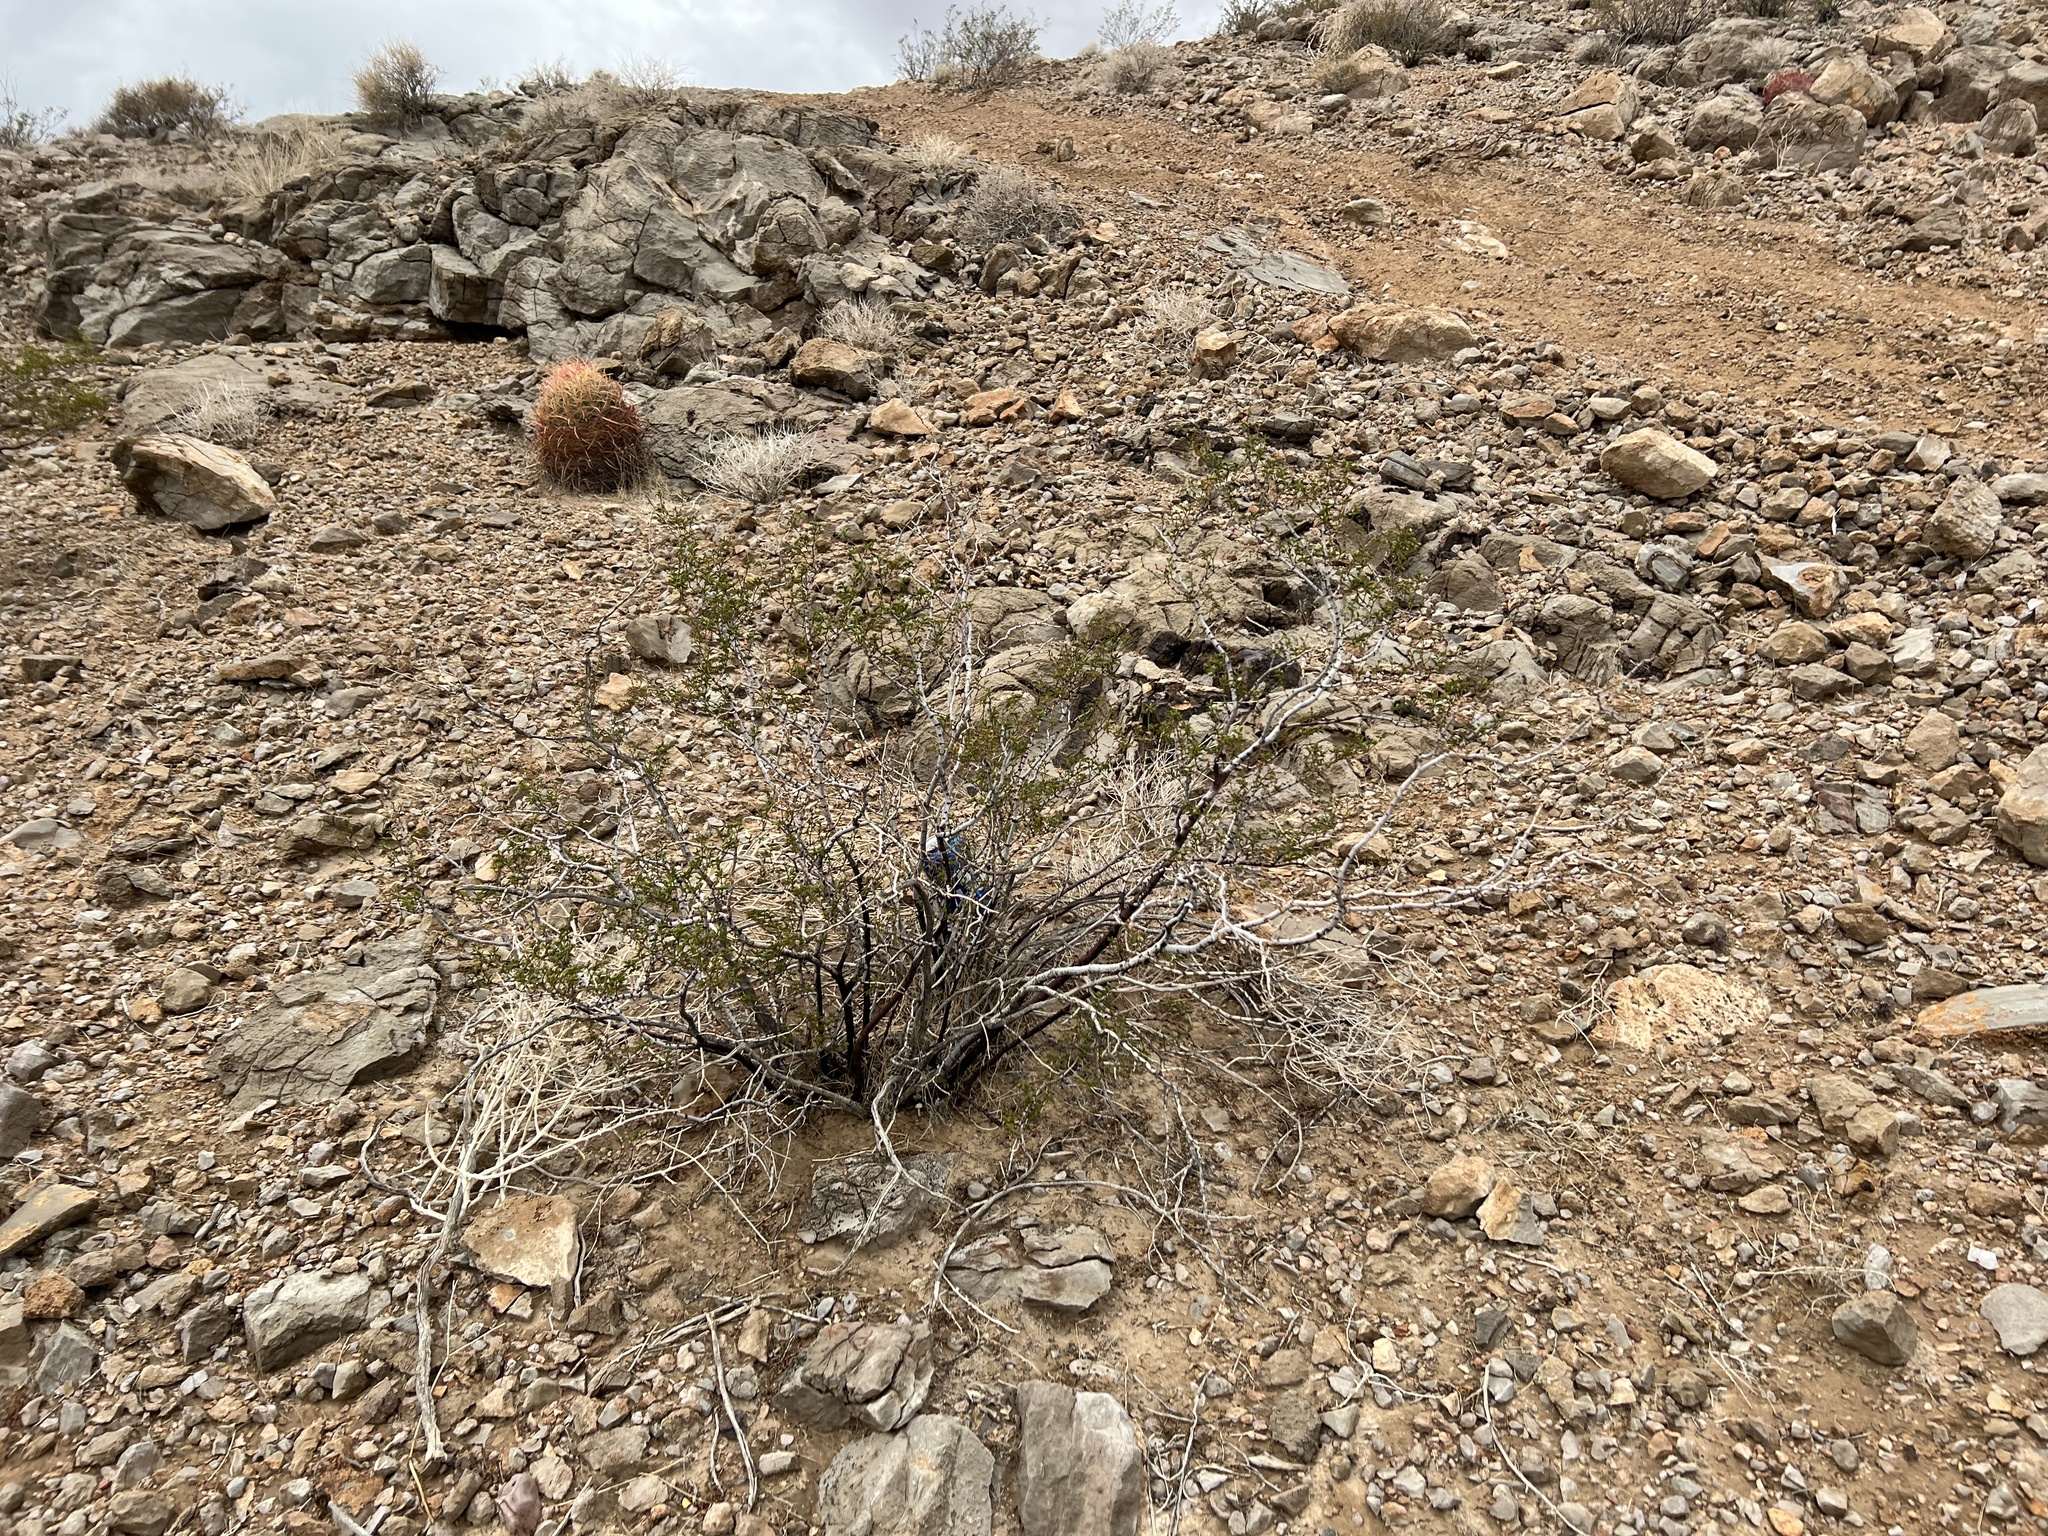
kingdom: Plantae
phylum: Tracheophyta
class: Magnoliopsida
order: Zygophyllales
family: Zygophyllaceae
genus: Larrea
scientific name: Larrea tridentata
